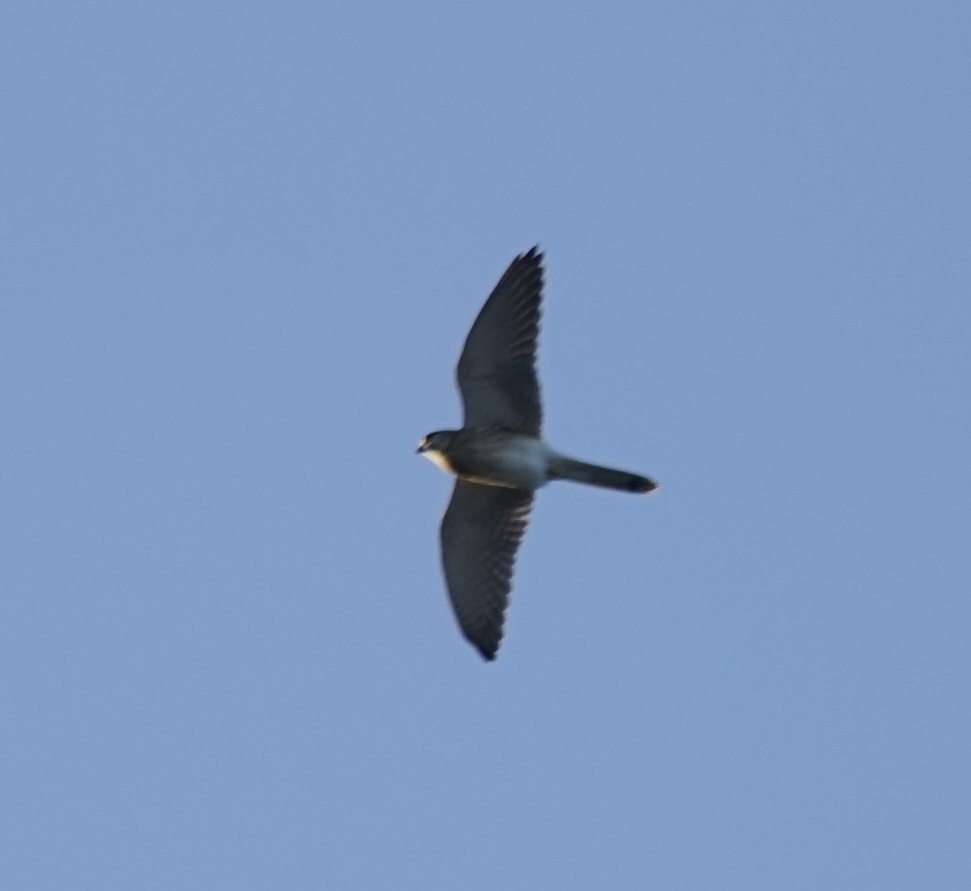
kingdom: Animalia
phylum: Chordata
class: Aves
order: Falconiformes
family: Falconidae
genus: Falco
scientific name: Falco cenchroides
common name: Nankeen kestrel
